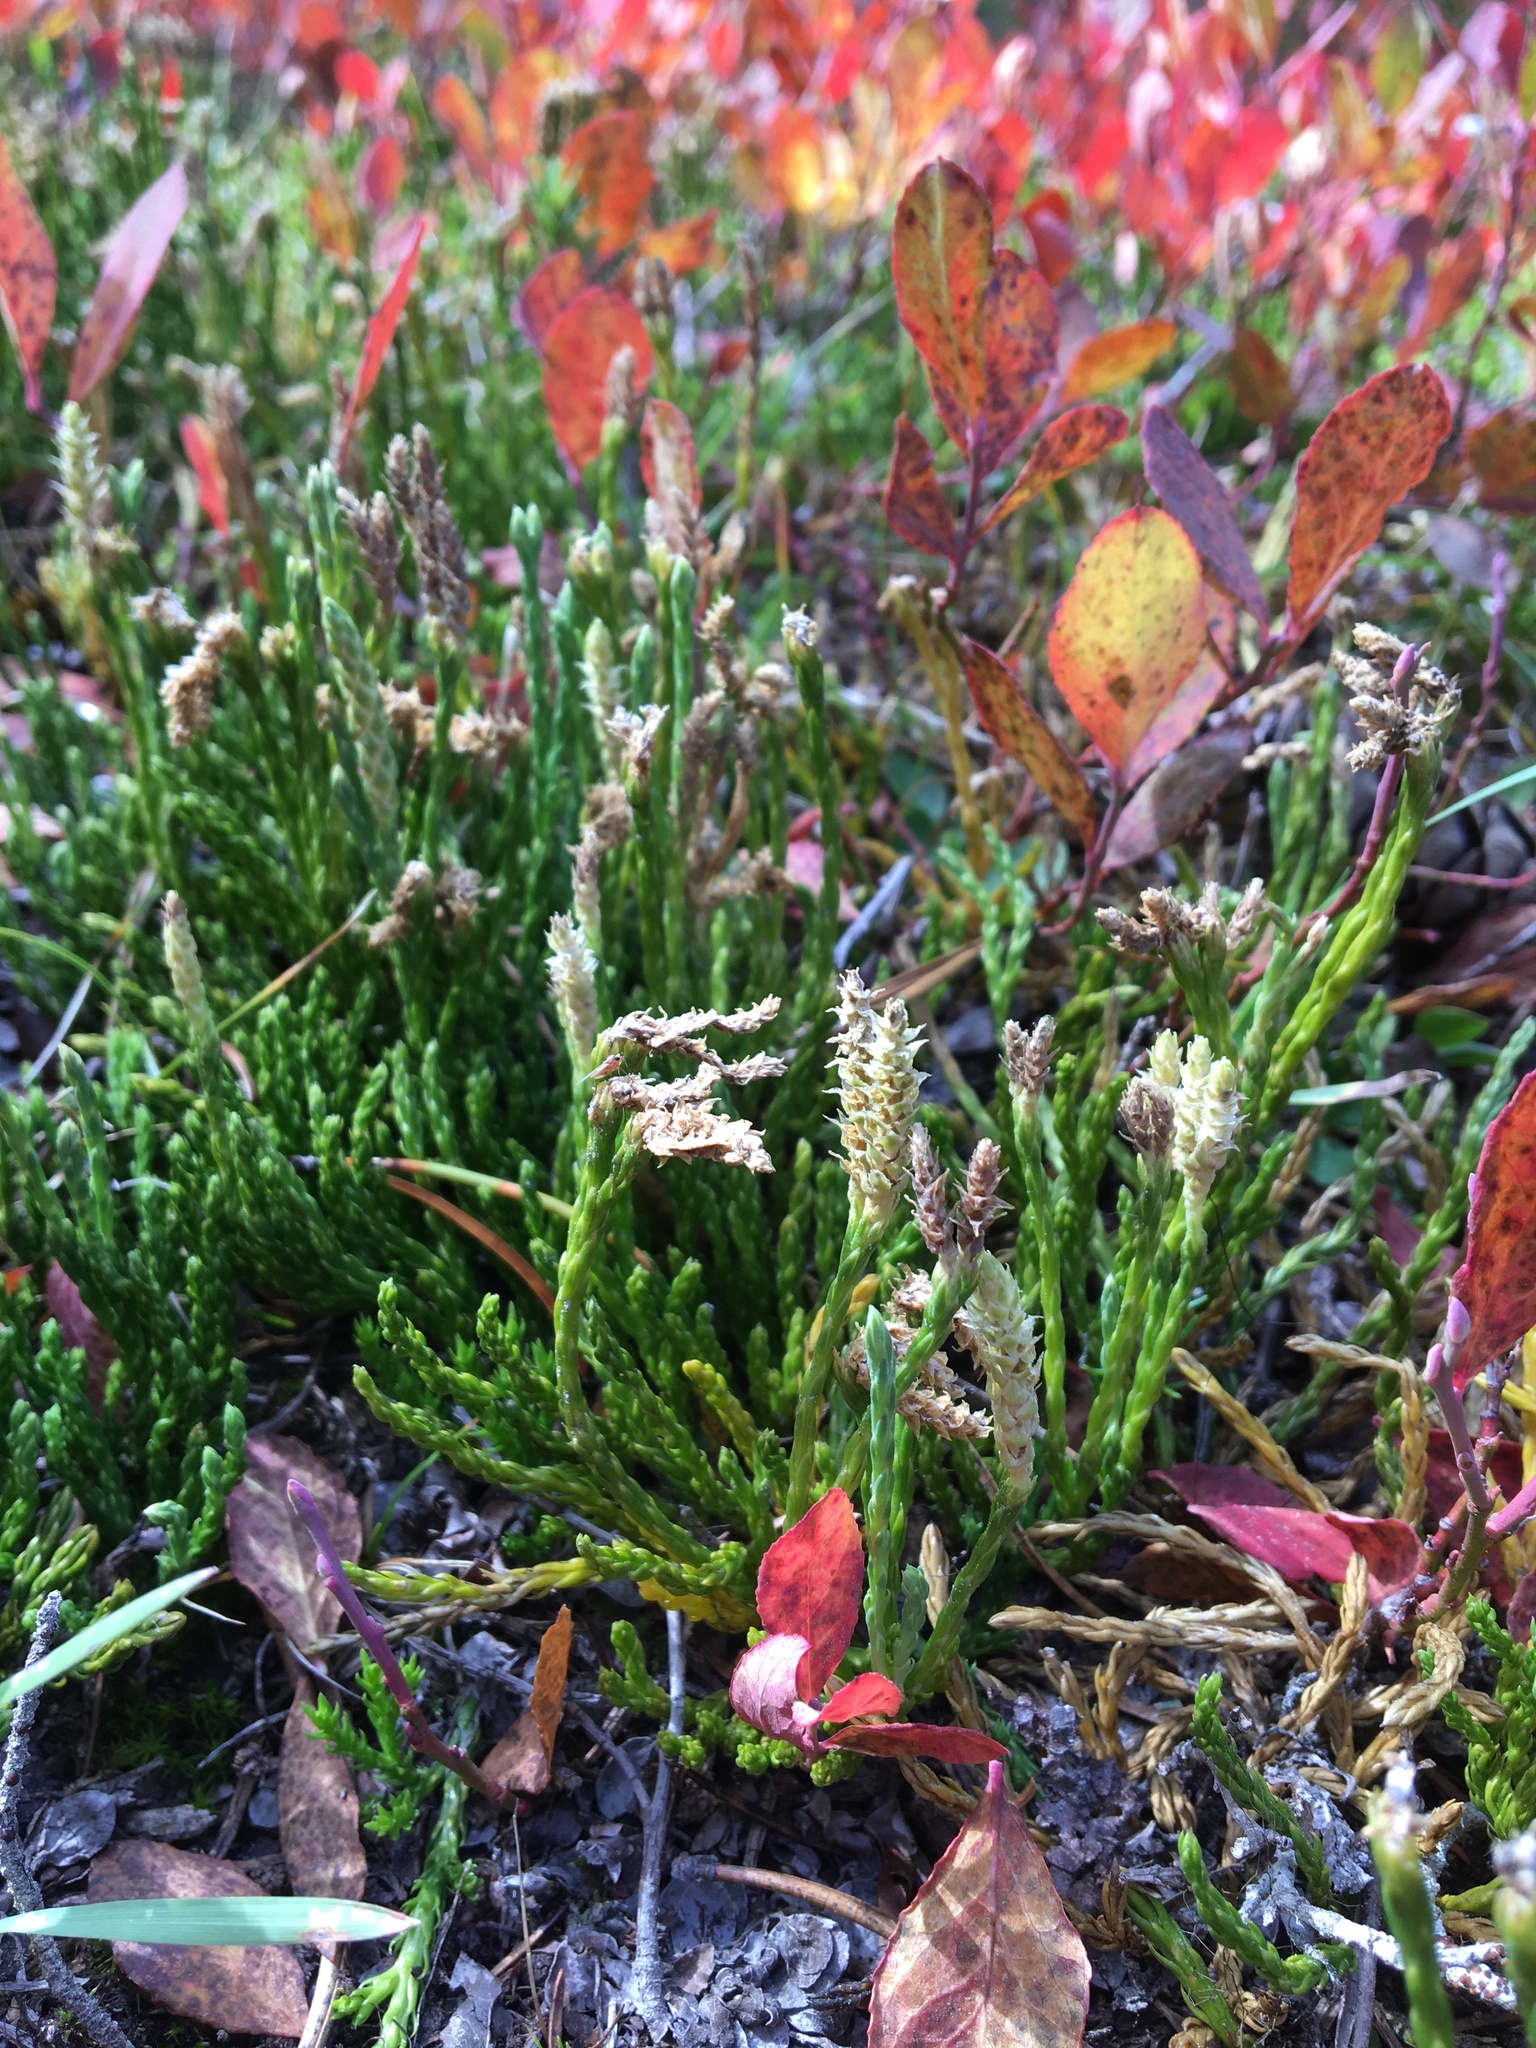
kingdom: Plantae
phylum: Tracheophyta
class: Lycopodiopsida
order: Lycopodiales
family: Lycopodiaceae
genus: Diphasiastrum
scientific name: Diphasiastrum
